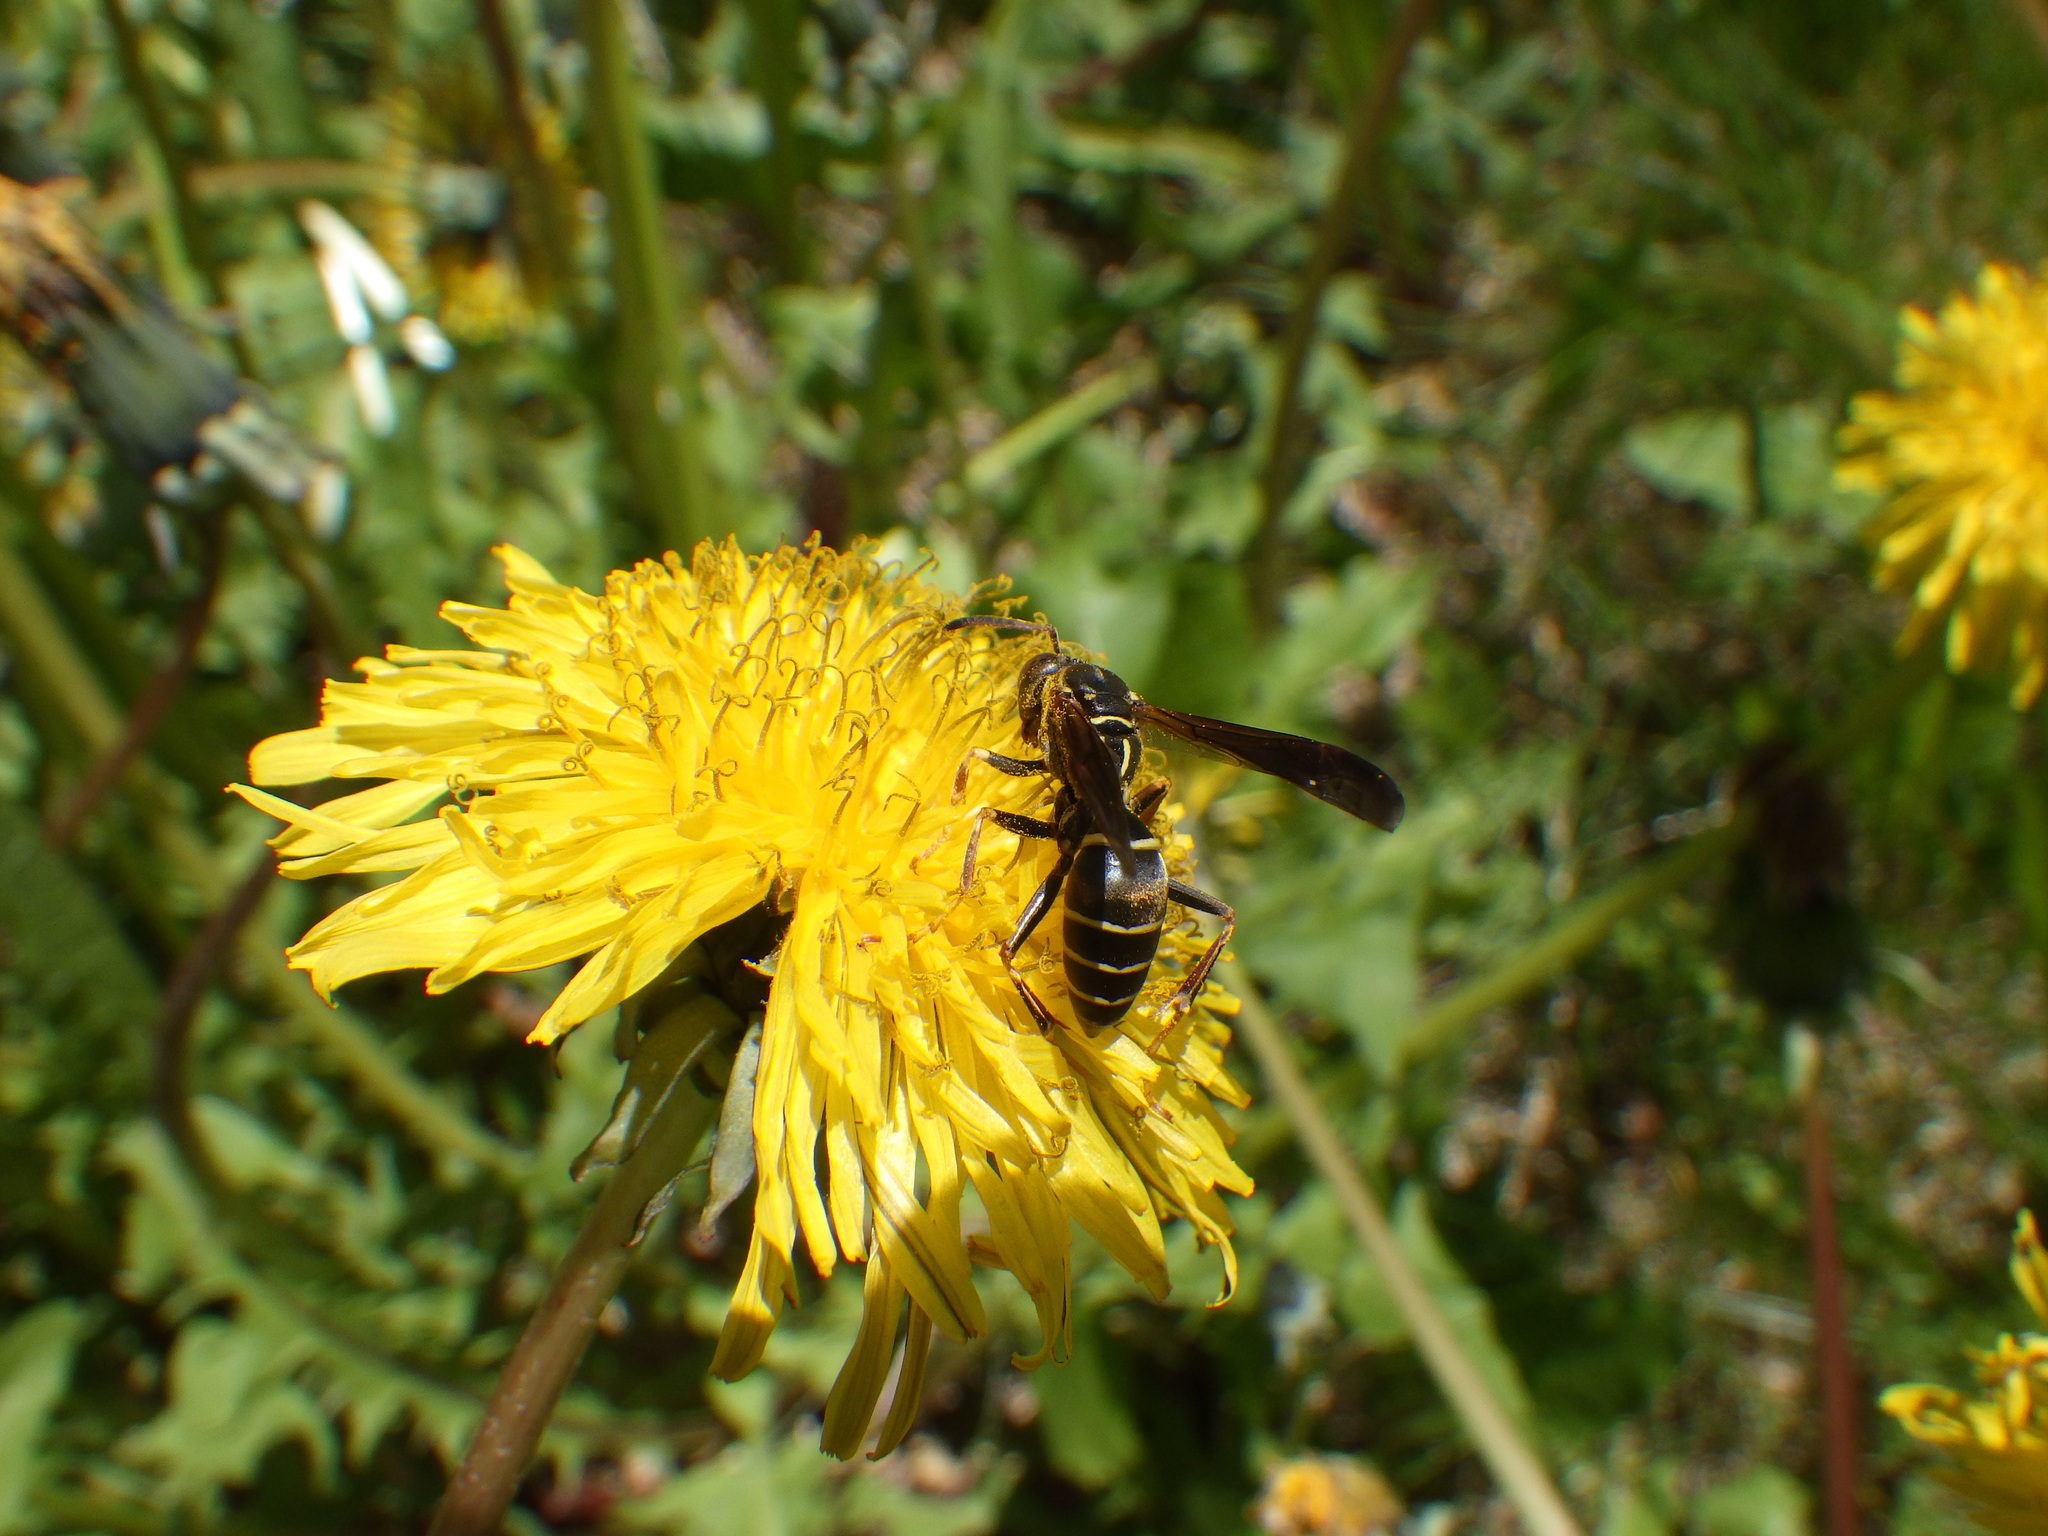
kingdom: Animalia
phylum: Arthropoda
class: Insecta
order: Hymenoptera
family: Eumenidae
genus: Polistes
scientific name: Polistes fuscatus
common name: Dark paper wasp
